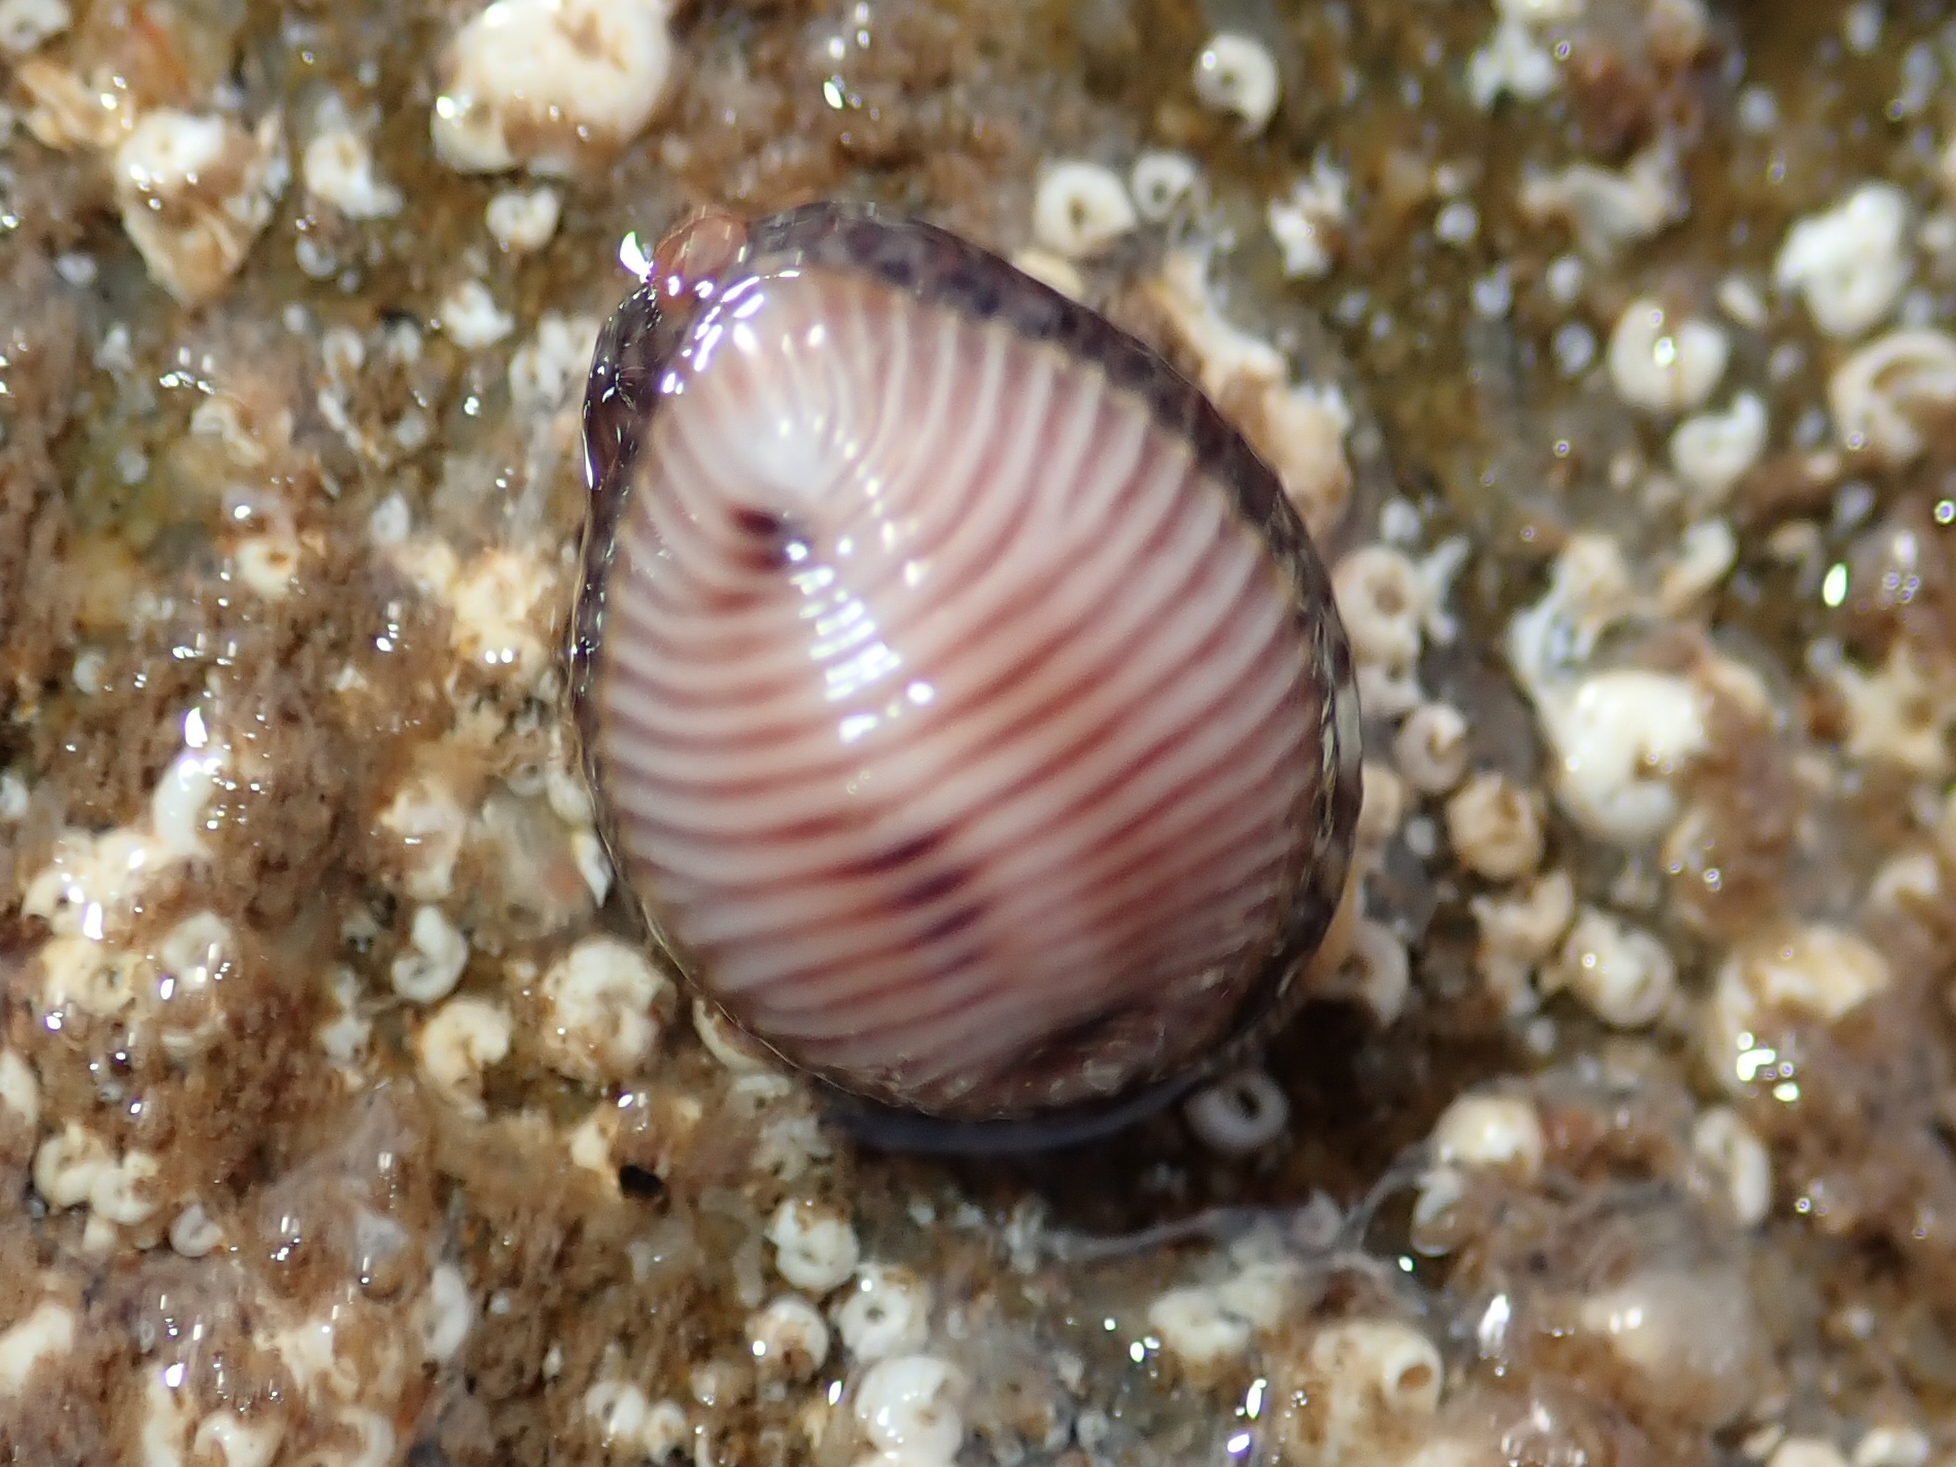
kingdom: Animalia
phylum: Mollusca
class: Gastropoda
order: Littorinimorpha
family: Triviidae
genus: Trivia
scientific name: Trivia monacha
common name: Spotted cowrie
